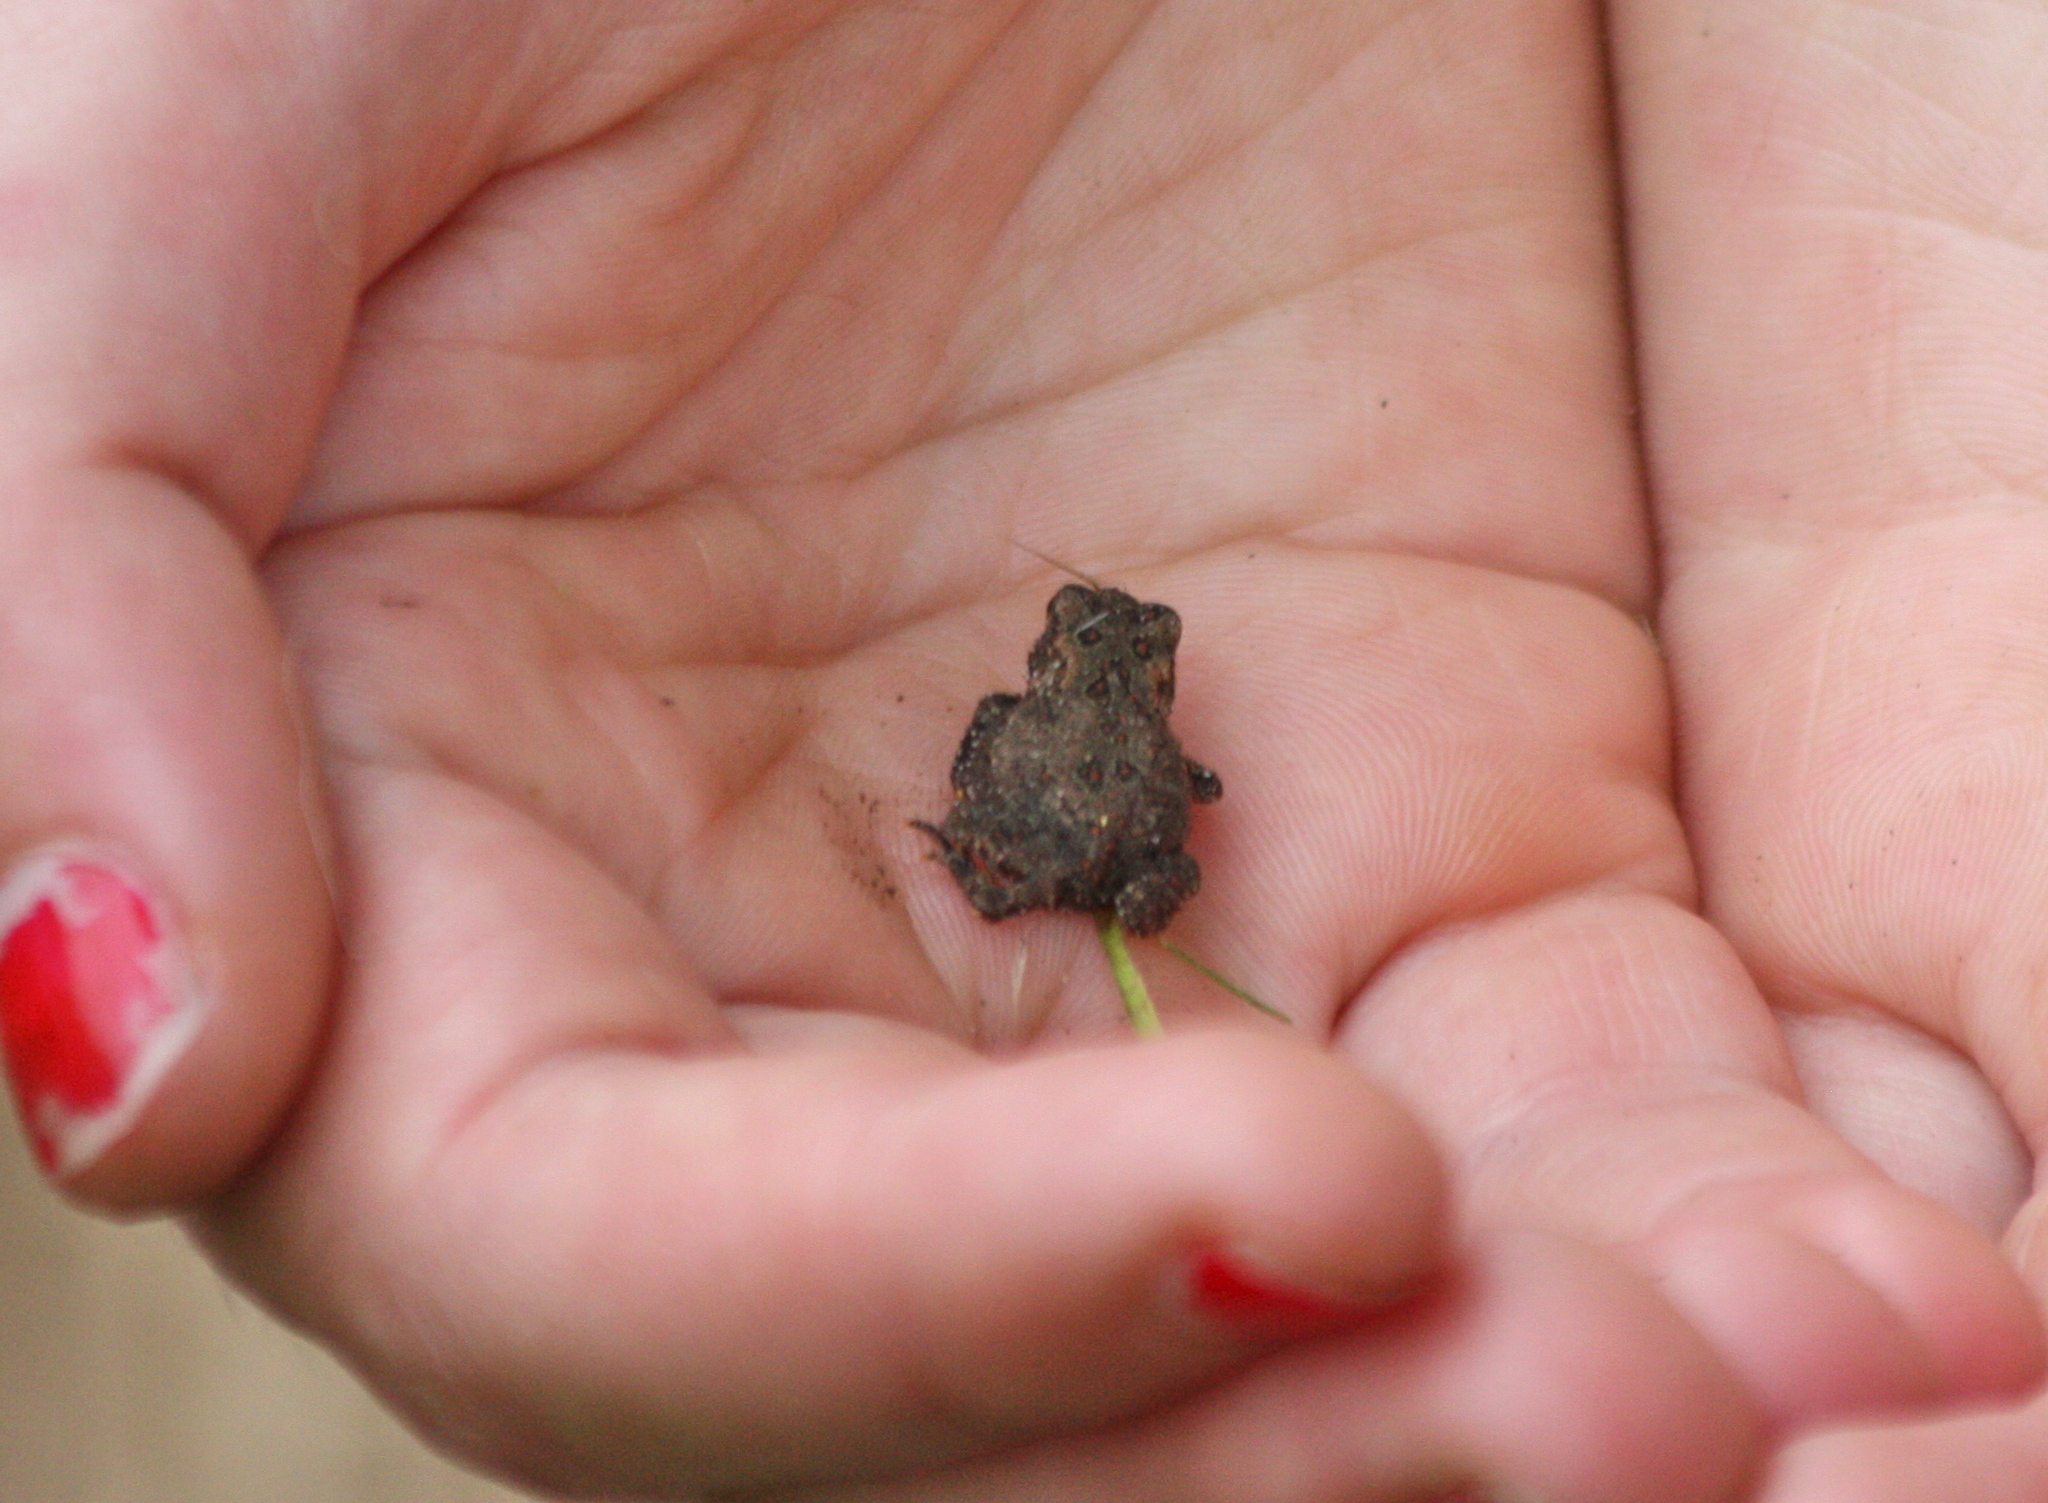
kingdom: Animalia
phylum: Chordata
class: Amphibia
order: Anura
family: Bufonidae
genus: Anaxyrus
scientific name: Anaxyrus americanus
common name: American toad
